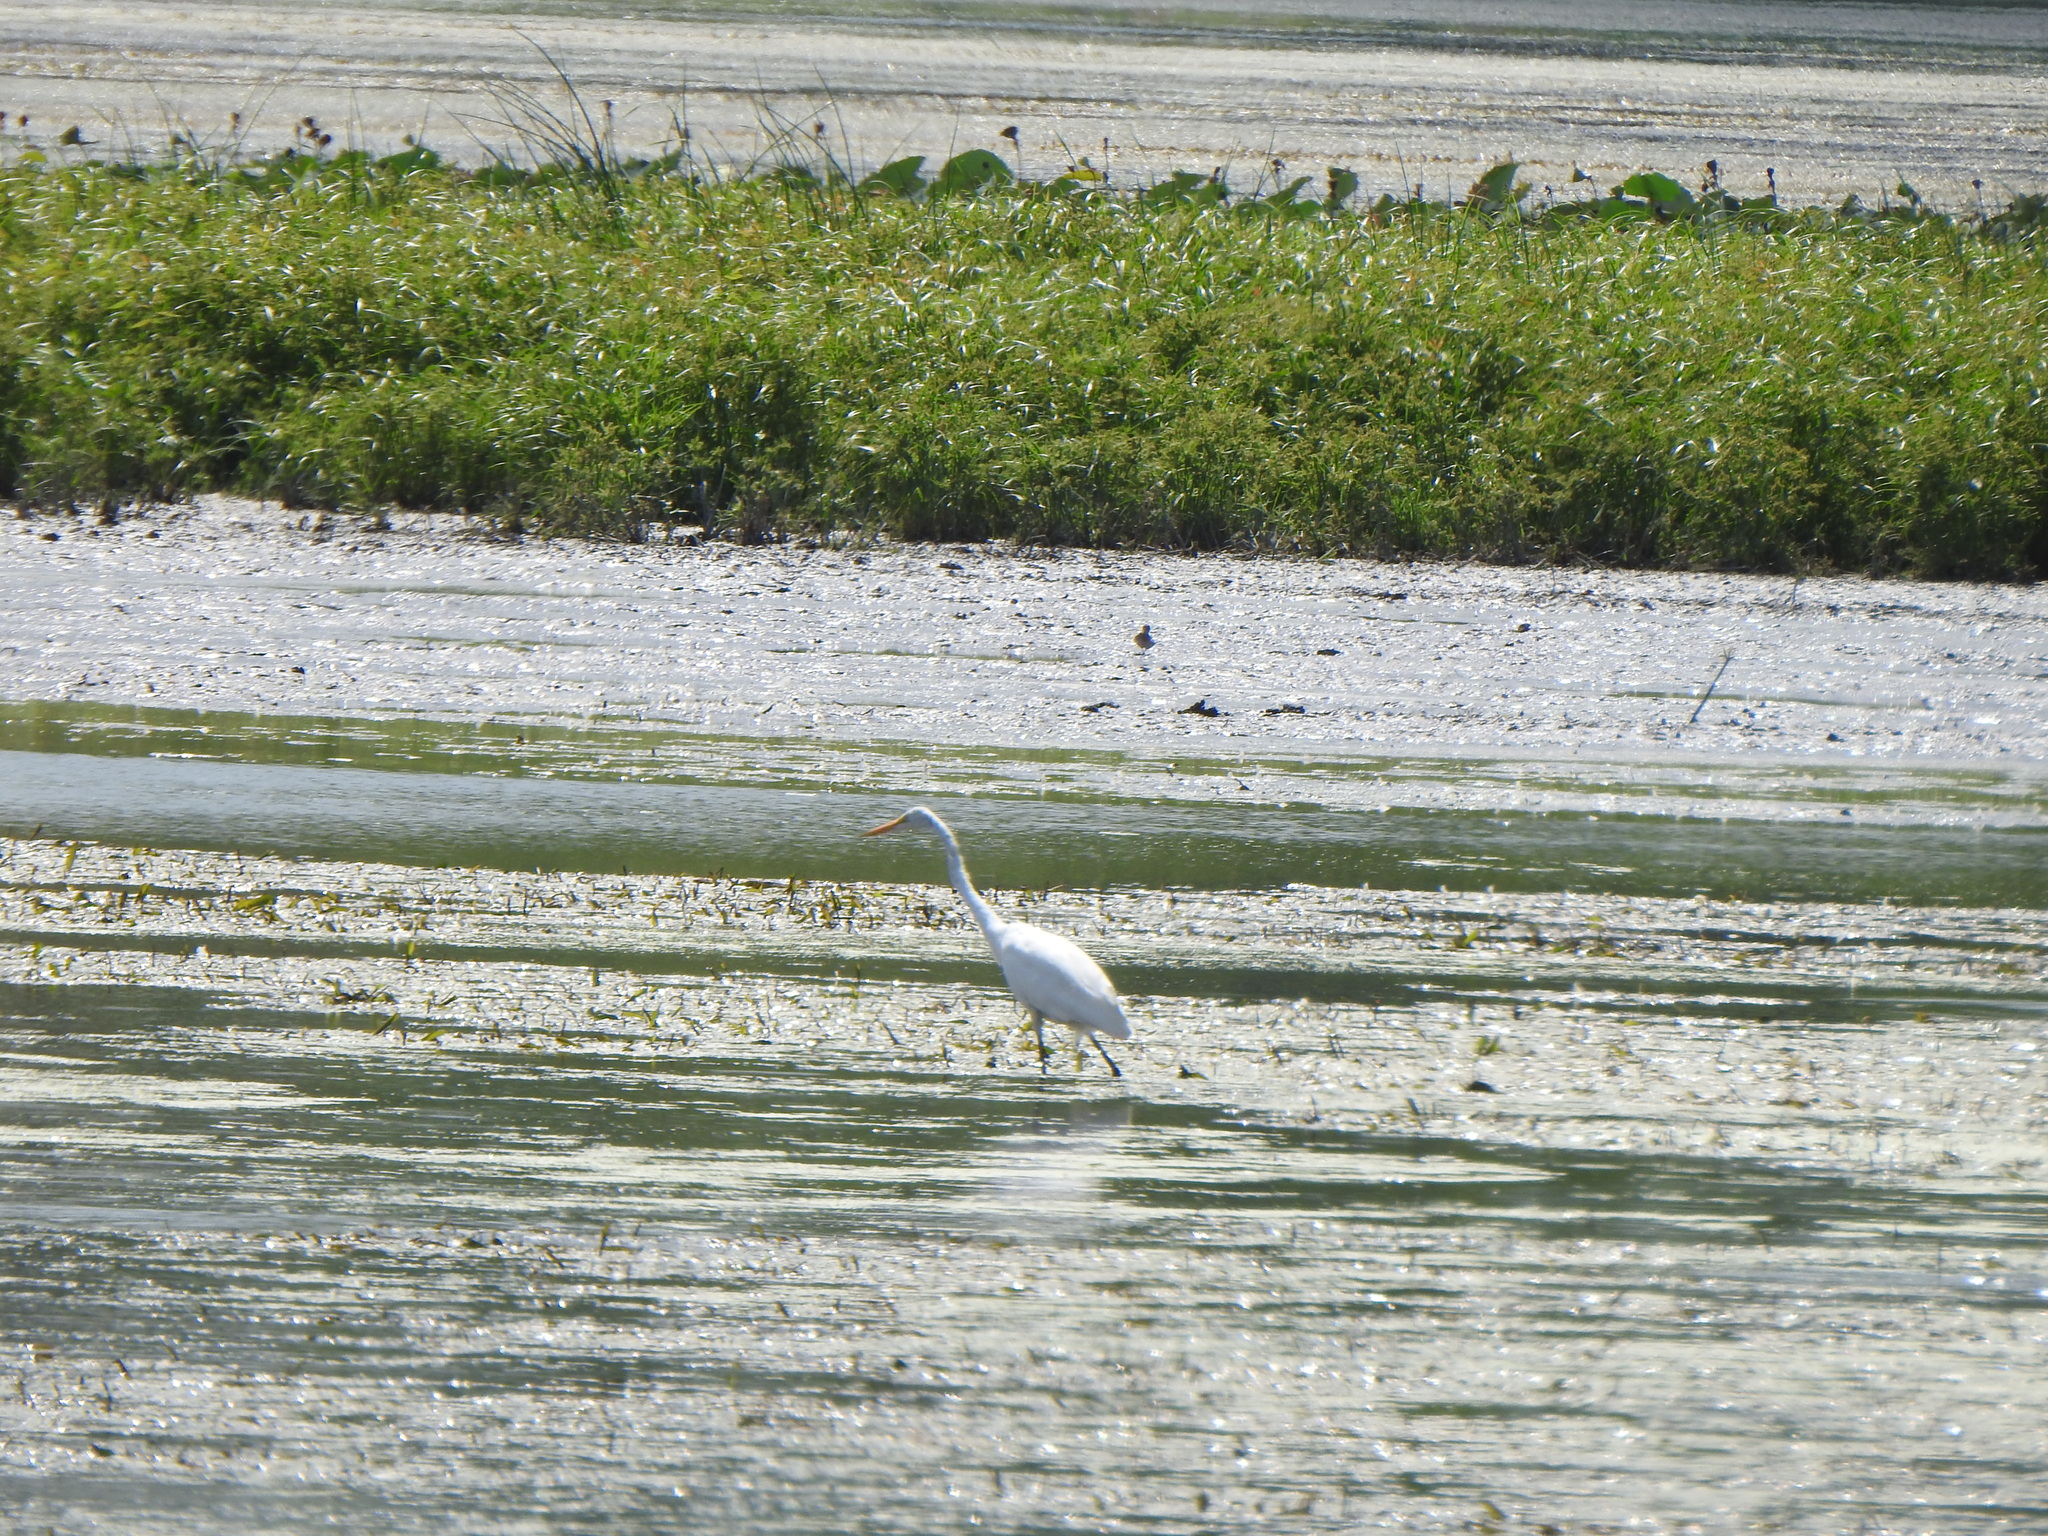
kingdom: Animalia
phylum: Chordata
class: Aves
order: Pelecaniformes
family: Ardeidae
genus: Ardea
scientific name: Ardea alba
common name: Great egret
